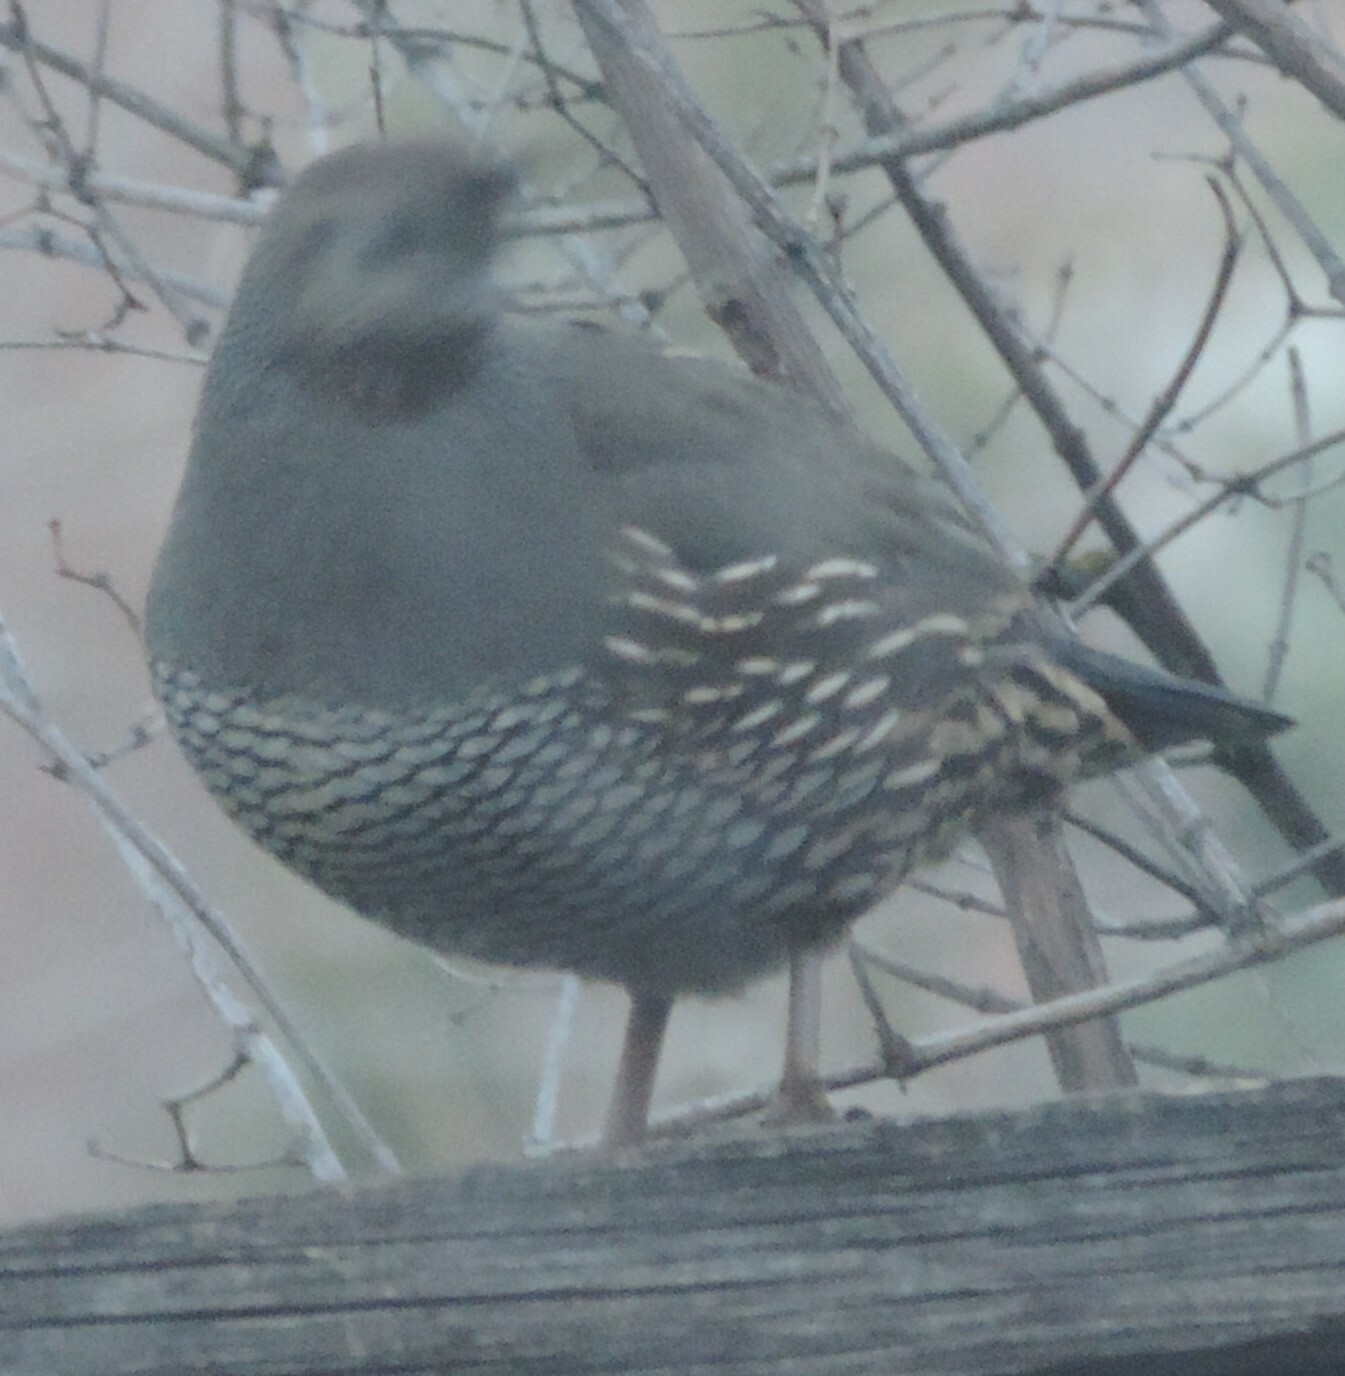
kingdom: Animalia
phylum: Chordata
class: Aves
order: Galliformes
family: Odontophoridae
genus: Callipepla
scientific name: Callipepla californica
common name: California quail
